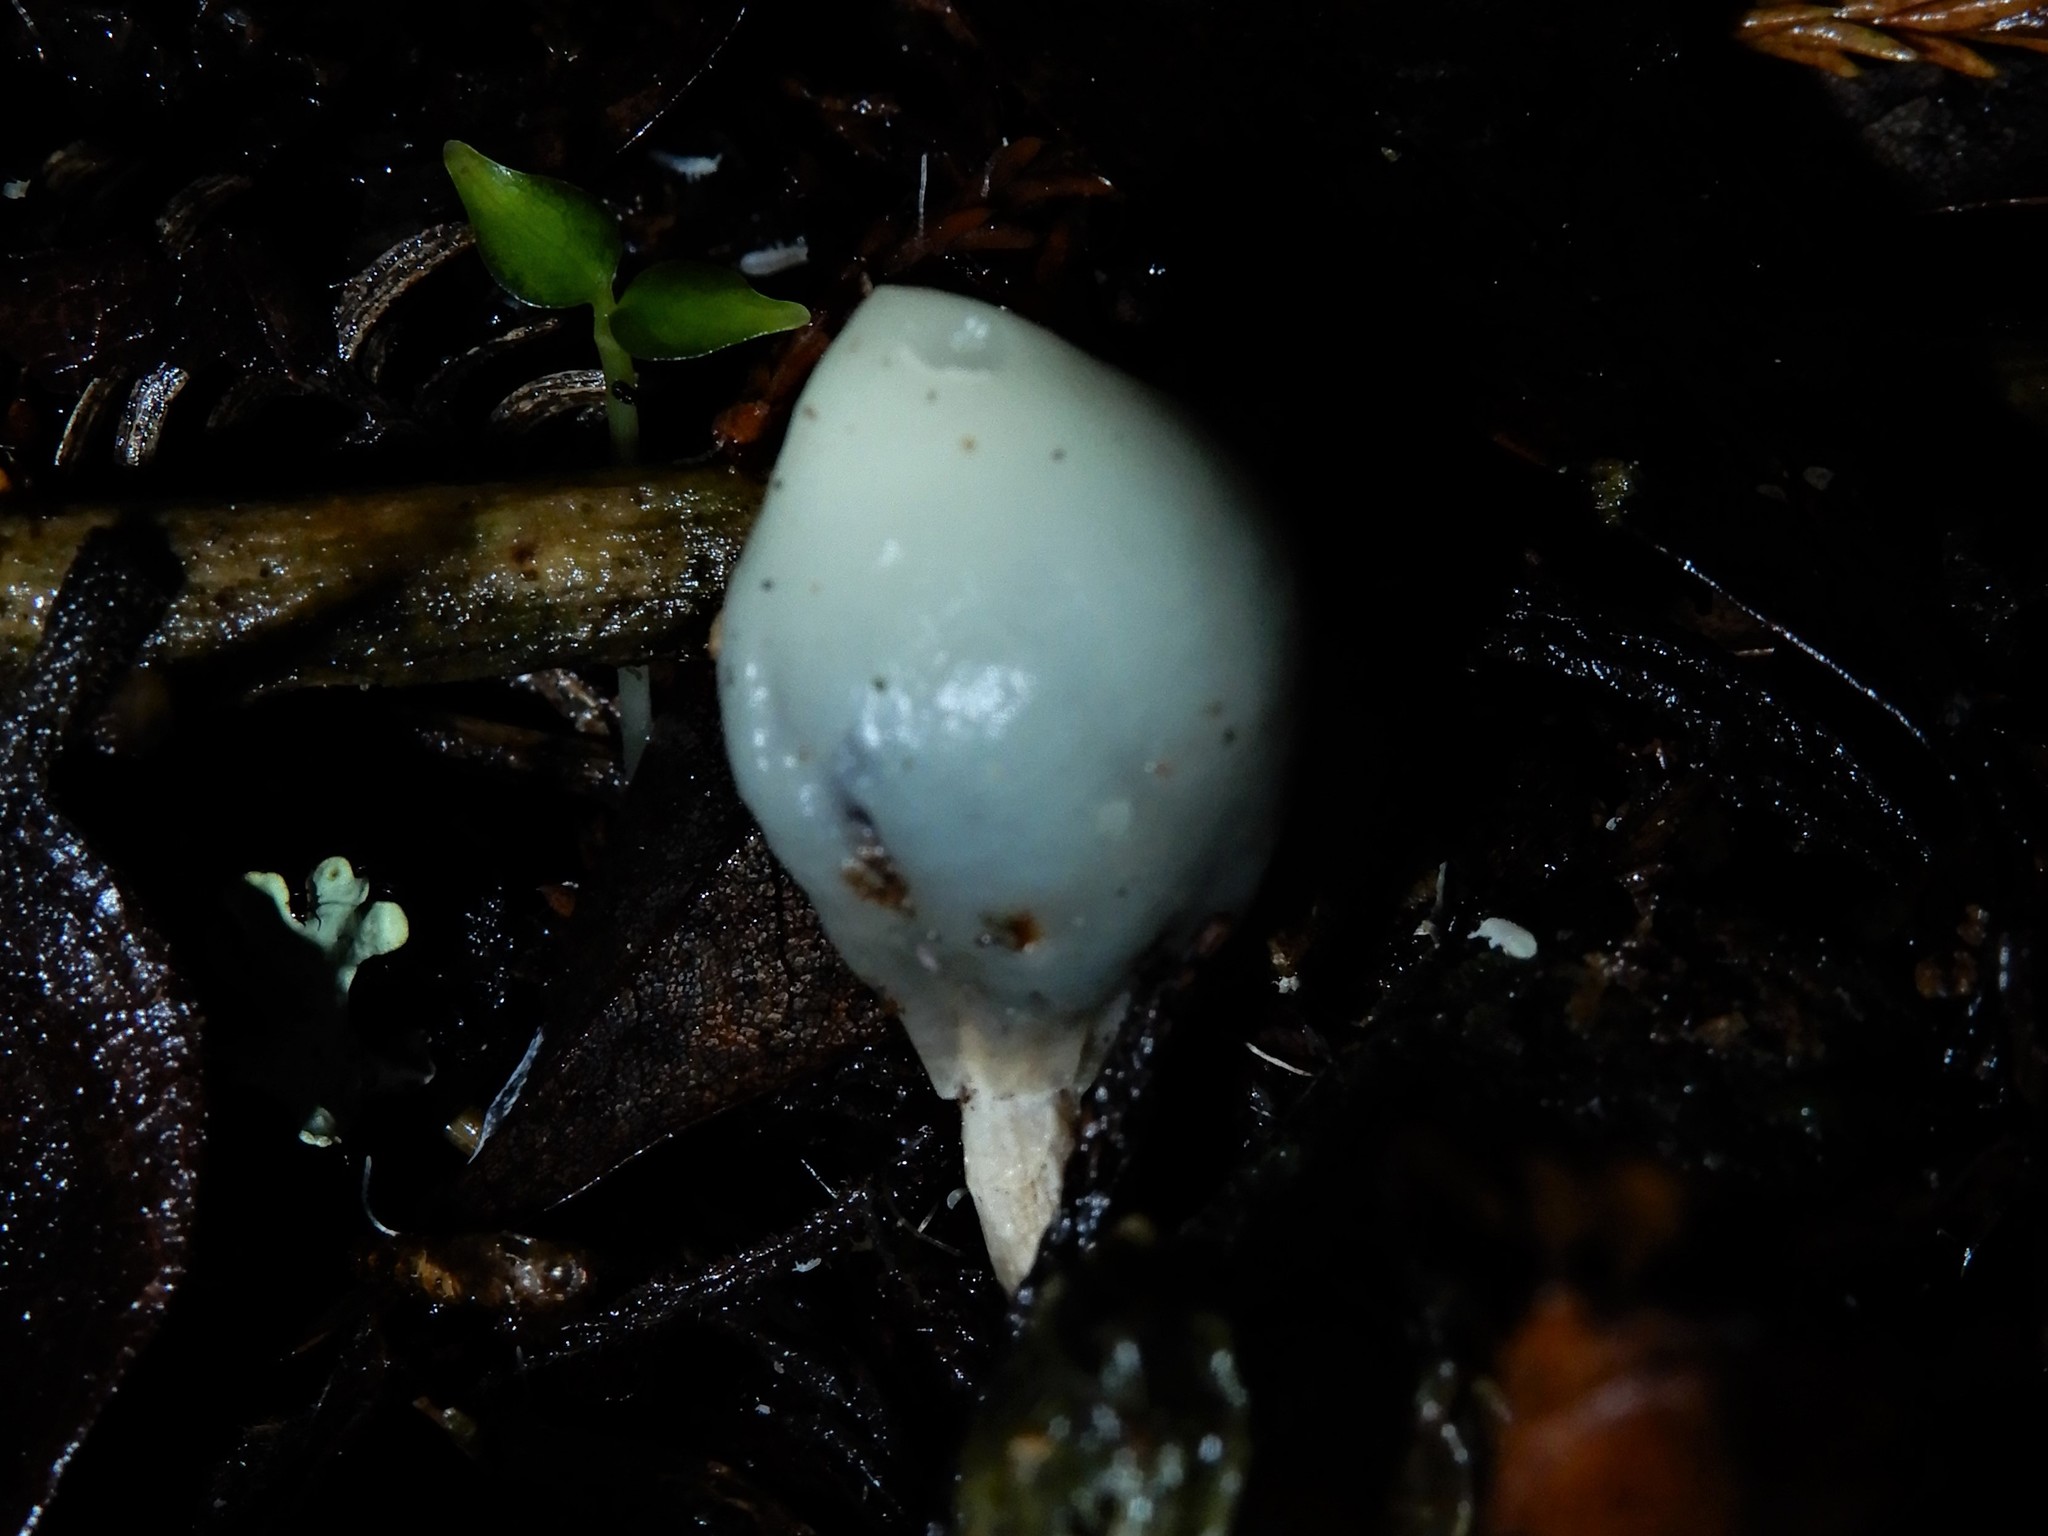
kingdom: Fungi
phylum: Basidiomycota
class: Agaricomycetes
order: Agaricales
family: Hymenogastraceae
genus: Psilocybe
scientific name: Psilocybe weraroa
